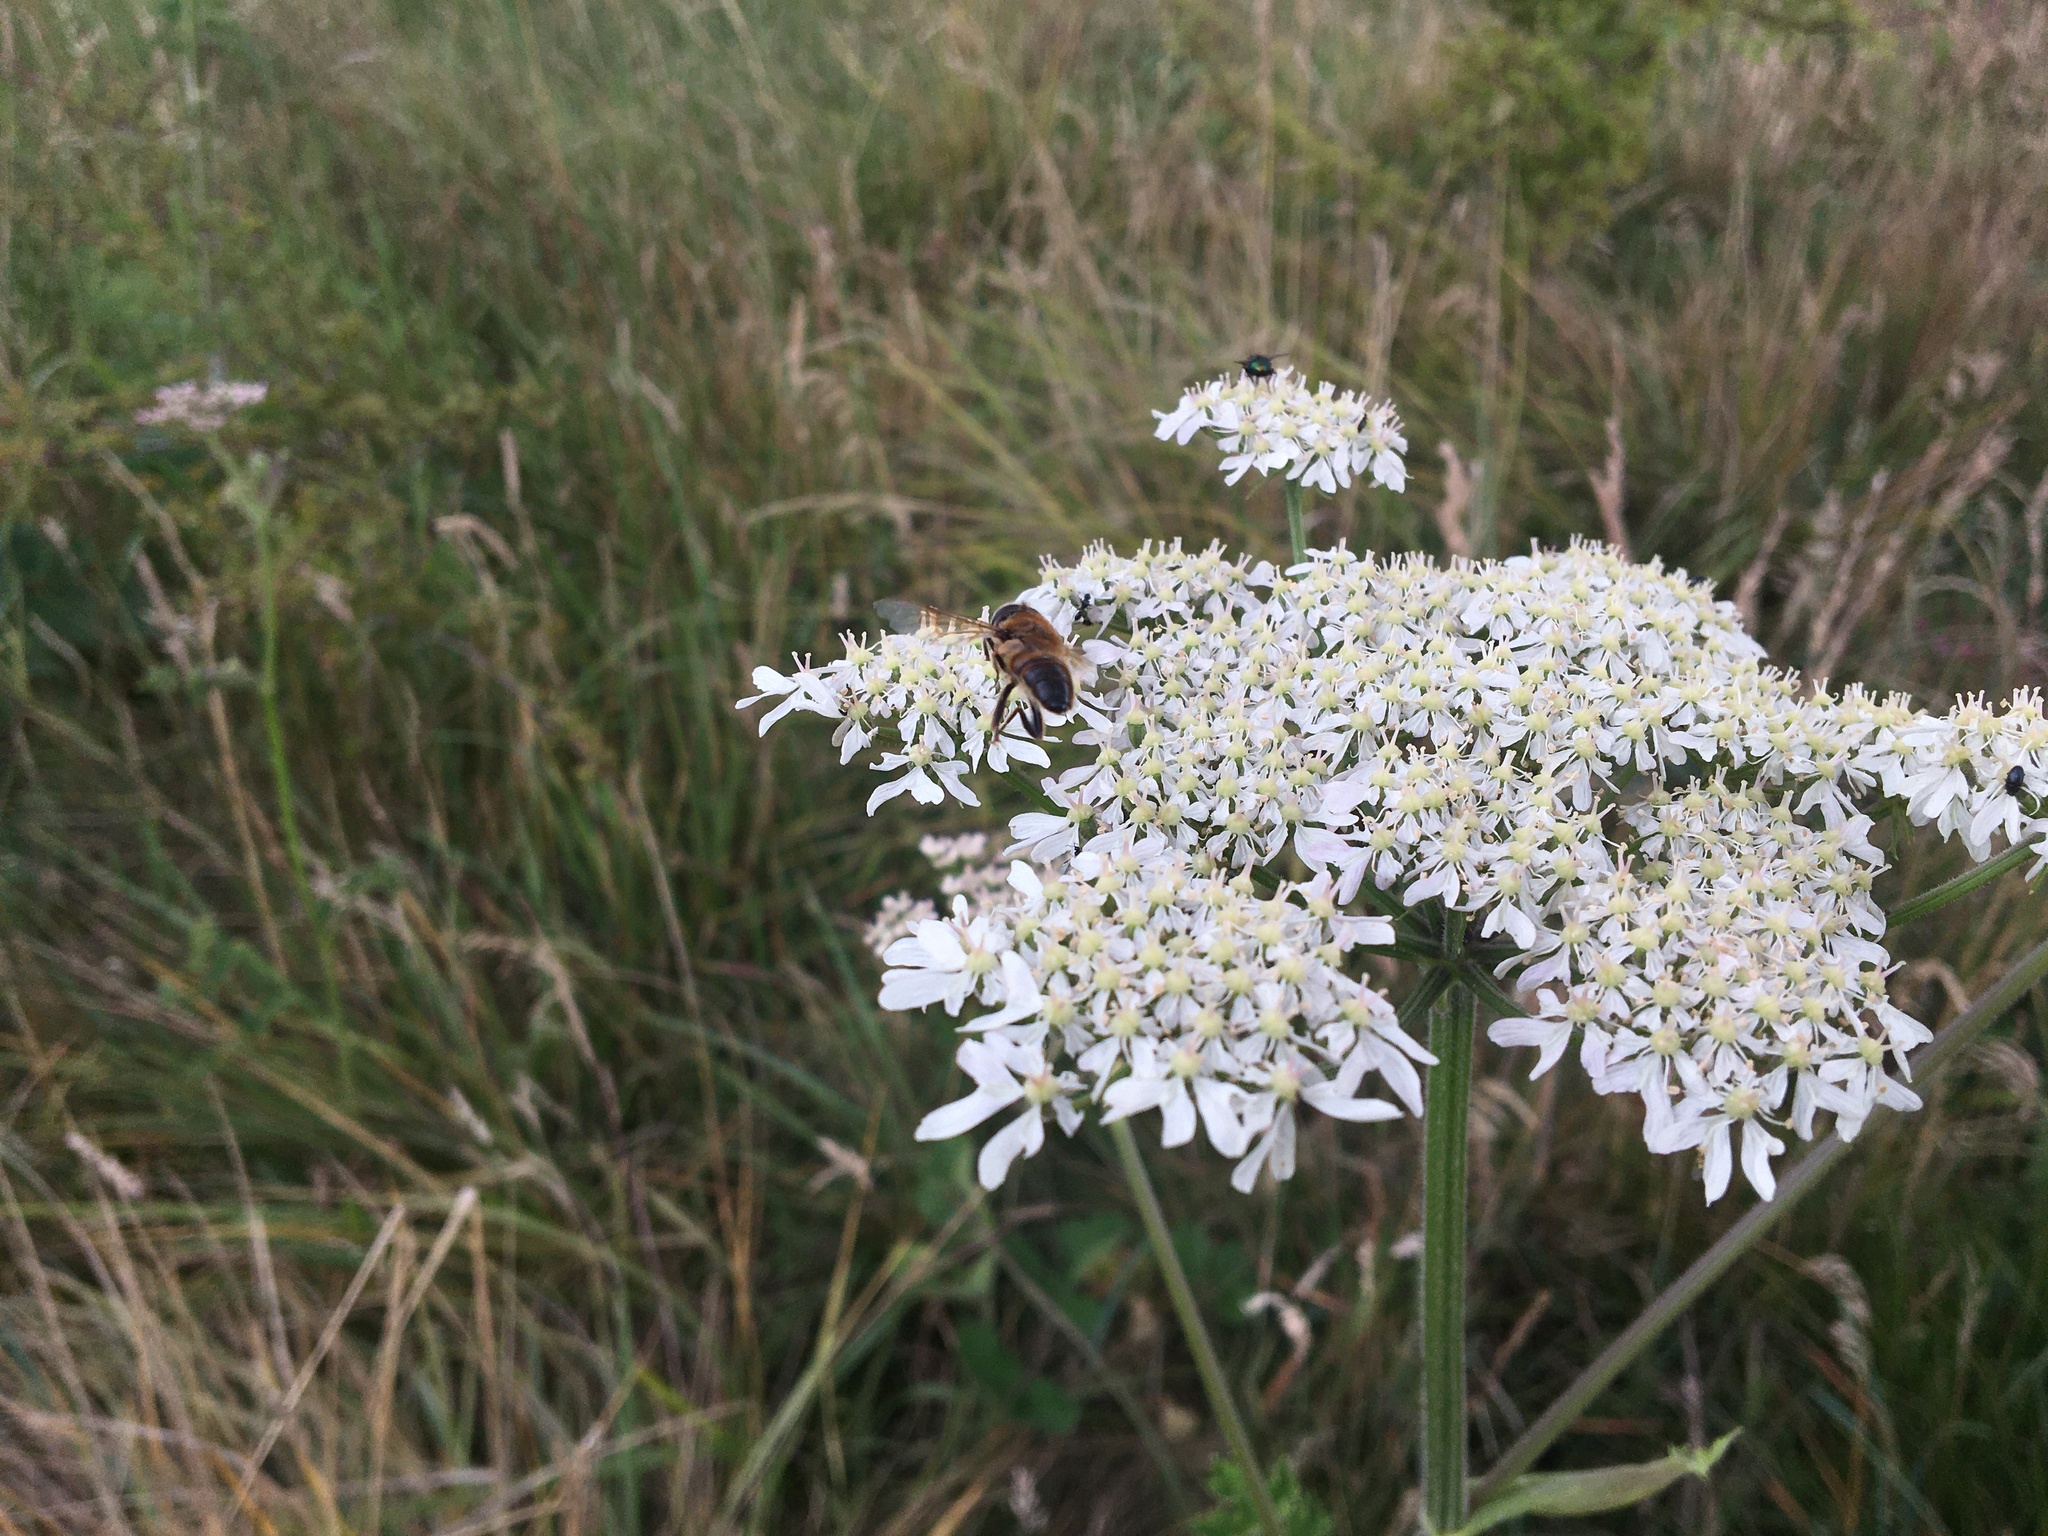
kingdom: Animalia
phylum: Arthropoda
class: Insecta
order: Diptera
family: Syrphidae
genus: Eristalis
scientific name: Eristalis tenax
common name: Drone fly
